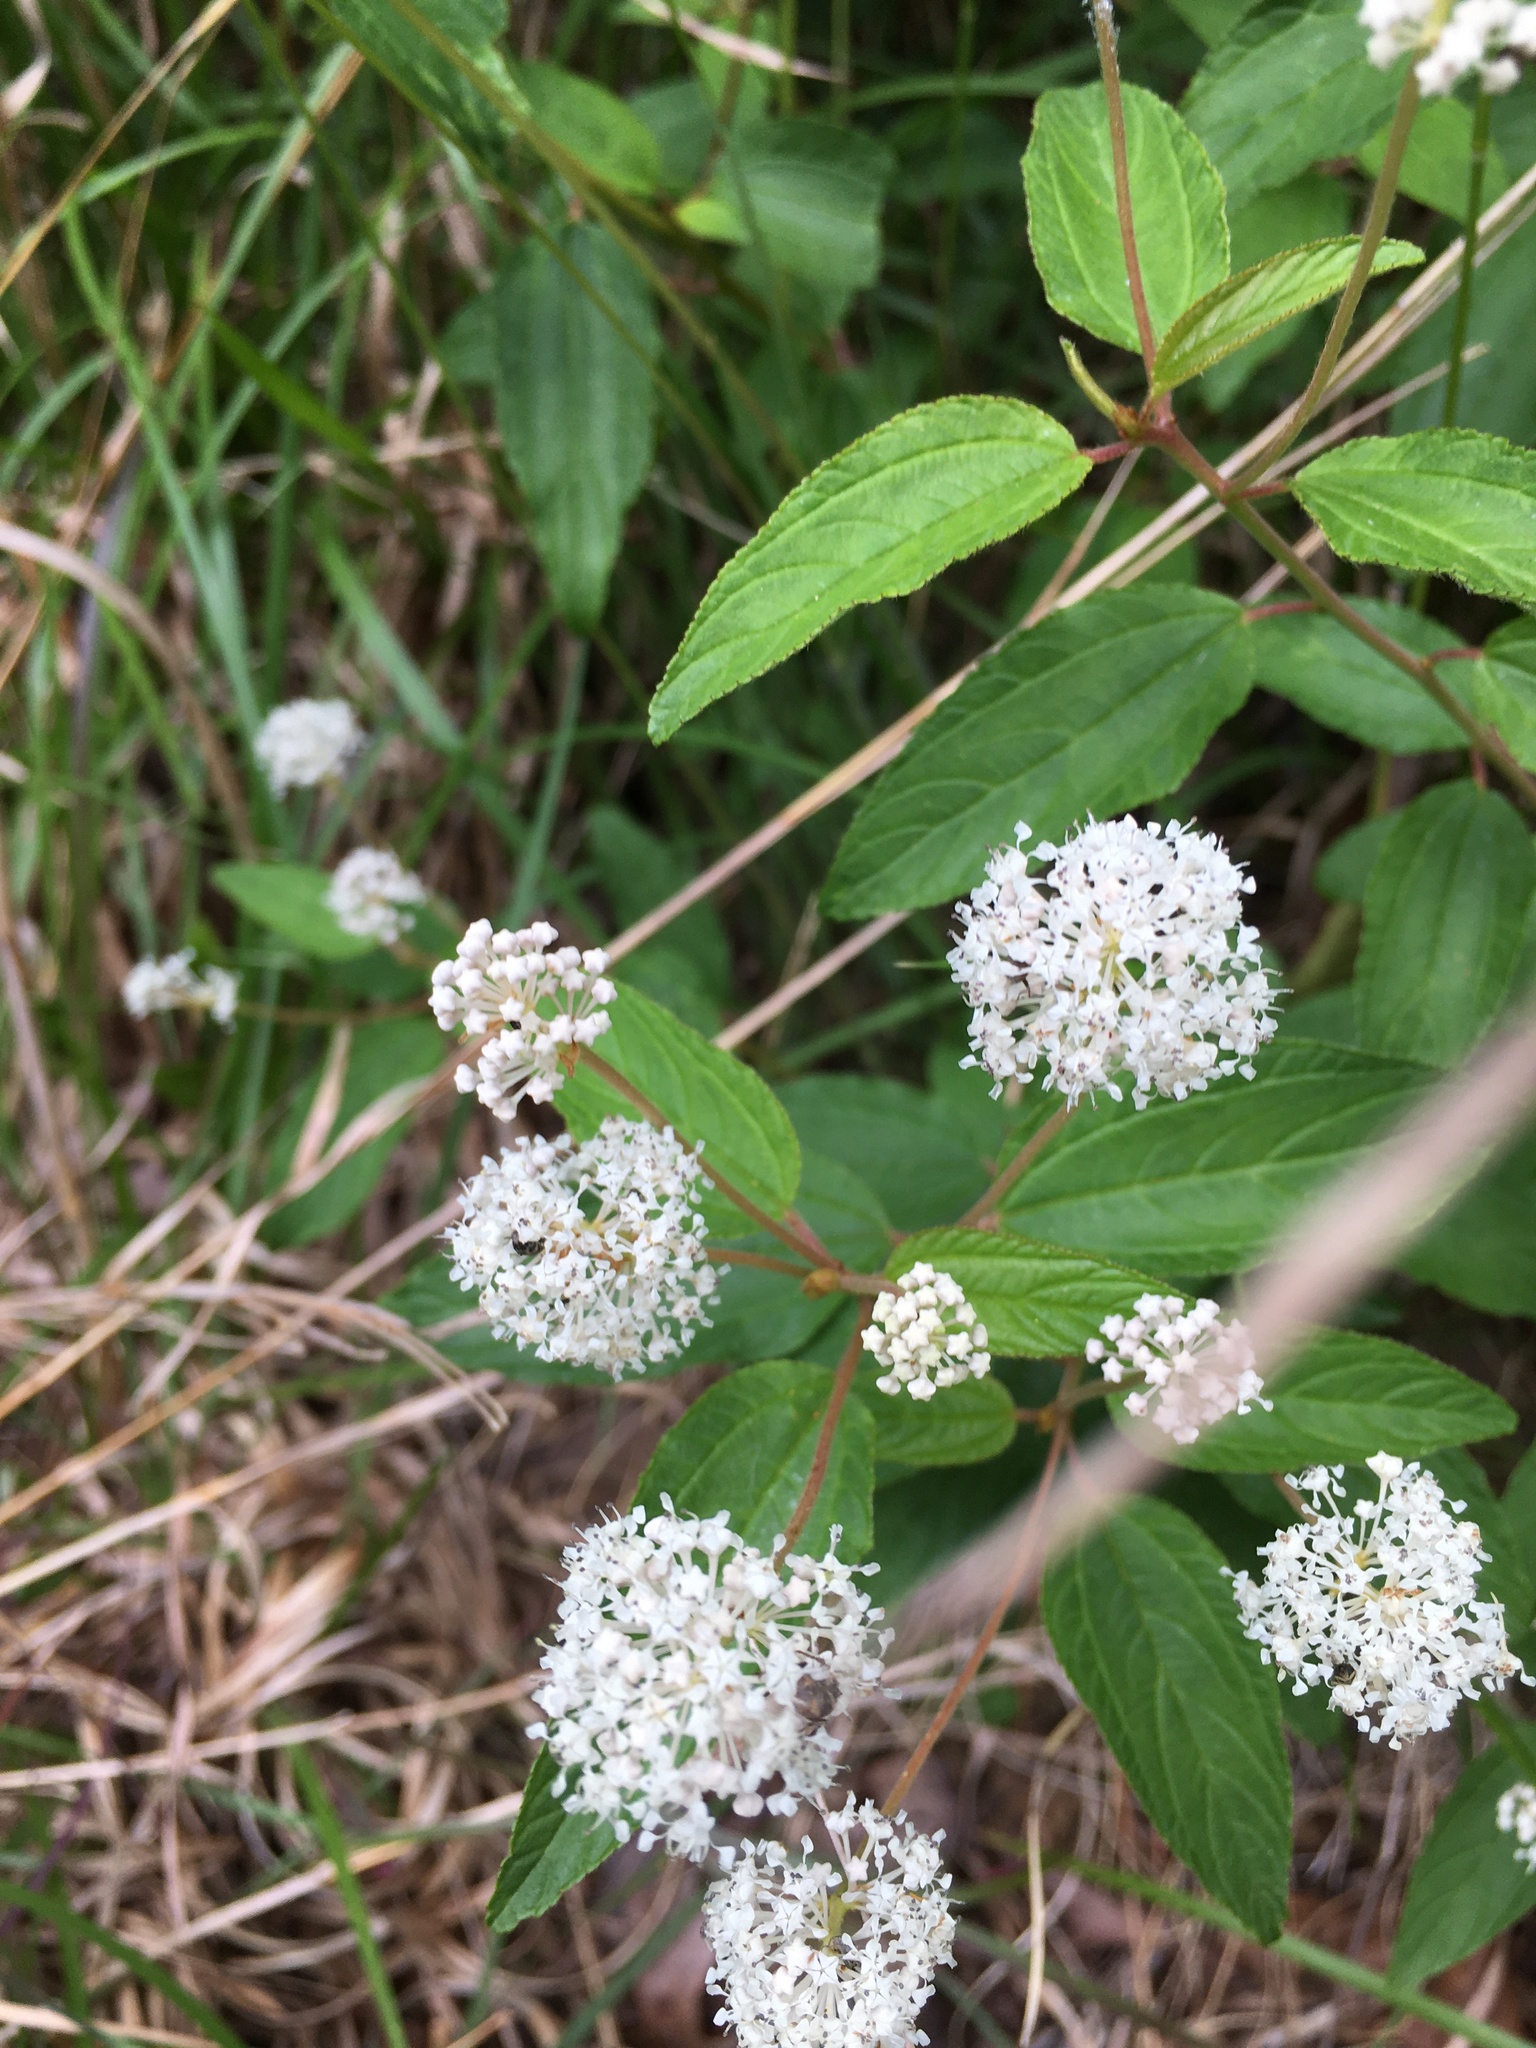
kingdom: Plantae
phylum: Tracheophyta
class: Magnoliopsida
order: Rosales
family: Rhamnaceae
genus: Ceanothus
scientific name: Ceanothus americanus
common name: Redroot
